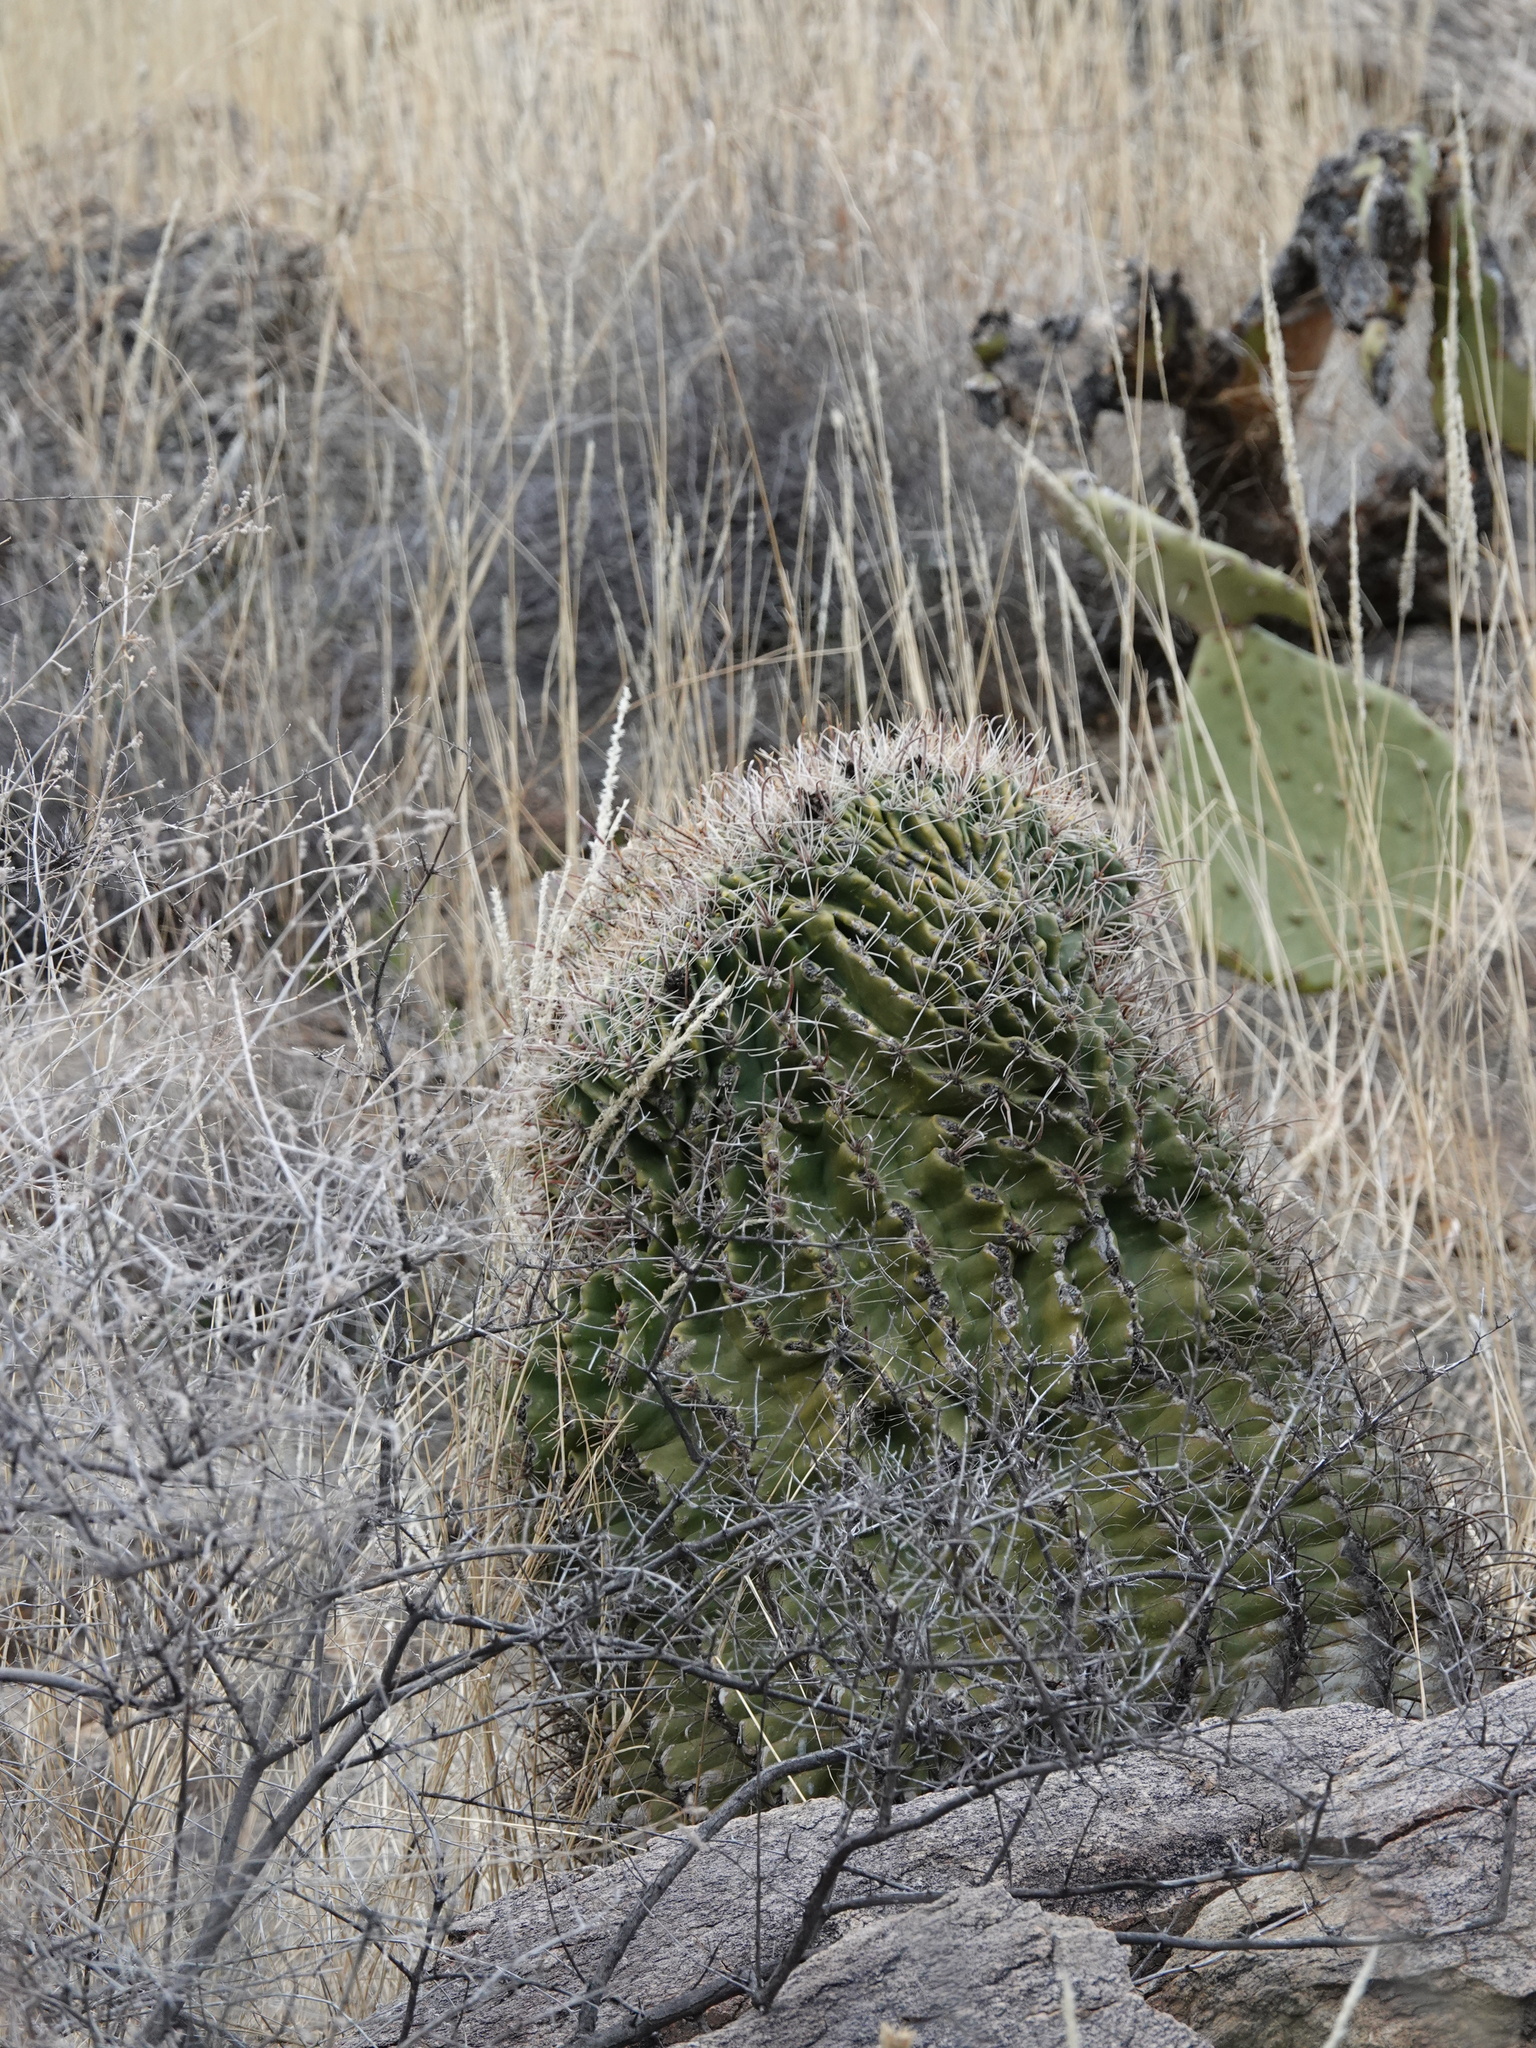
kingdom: Plantae
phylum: Tracheophyta
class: Magnoliopsida
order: Caryophyllales
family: Cactaceae
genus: Ferocactus
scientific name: Ferocactus wislizeni
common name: Candy barrel cactus
